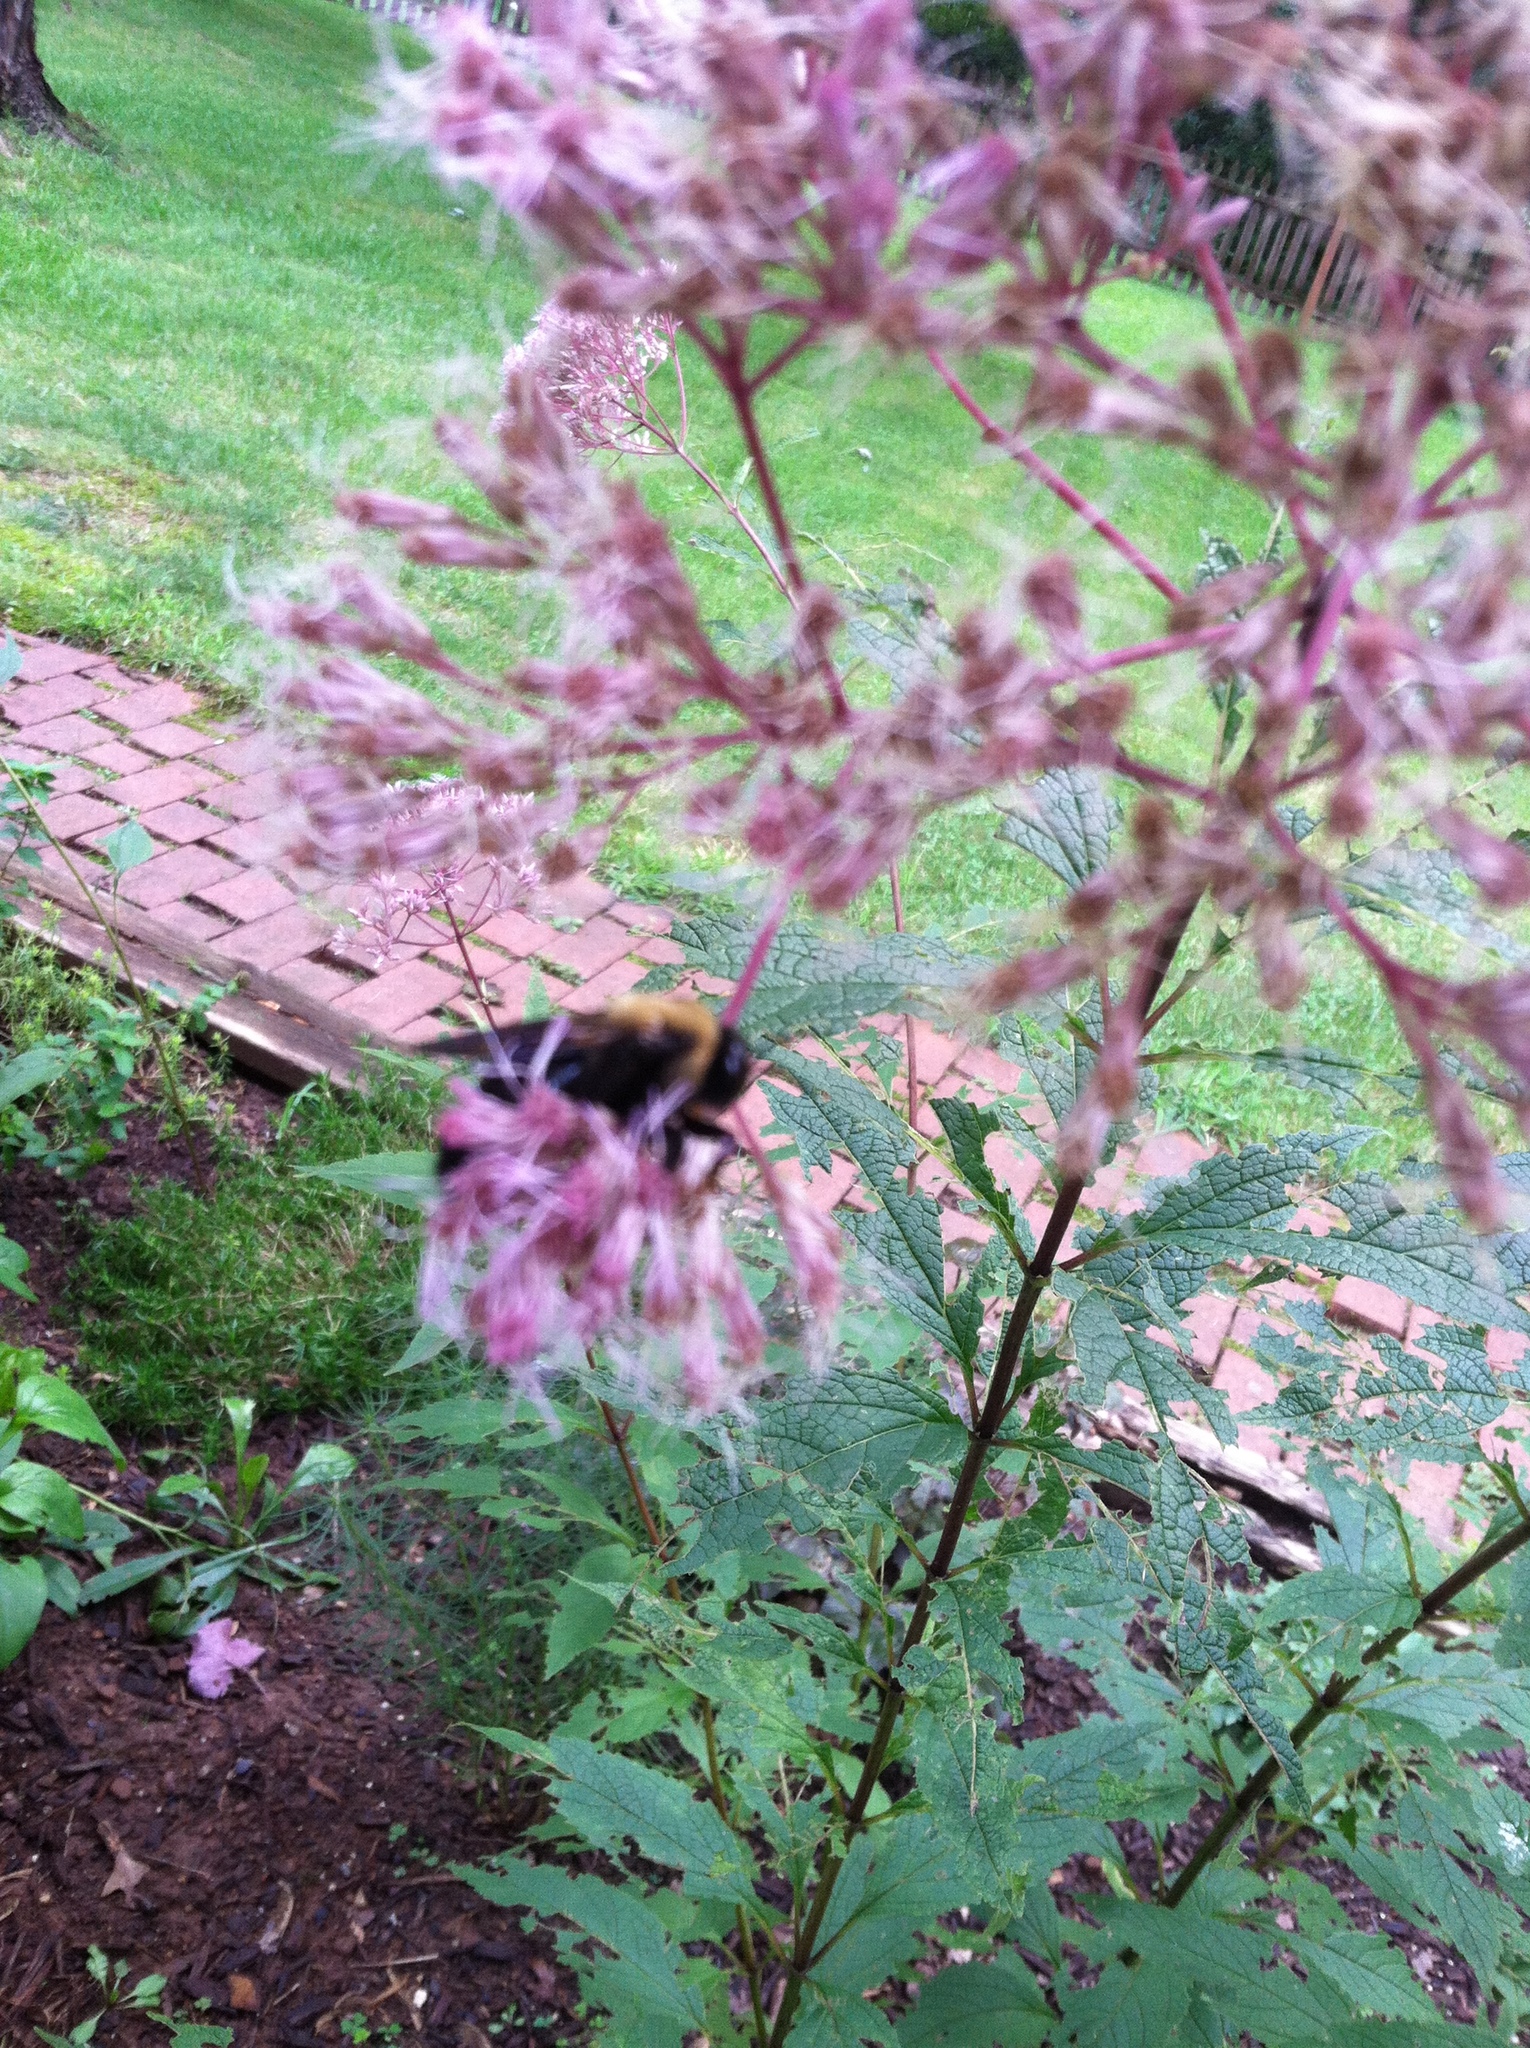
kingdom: Animalia
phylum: Arthropoda
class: Insecta
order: Hymenoptera
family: Apidae
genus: Xylocopa
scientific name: Xylocopa virginica
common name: Carpenter bee
